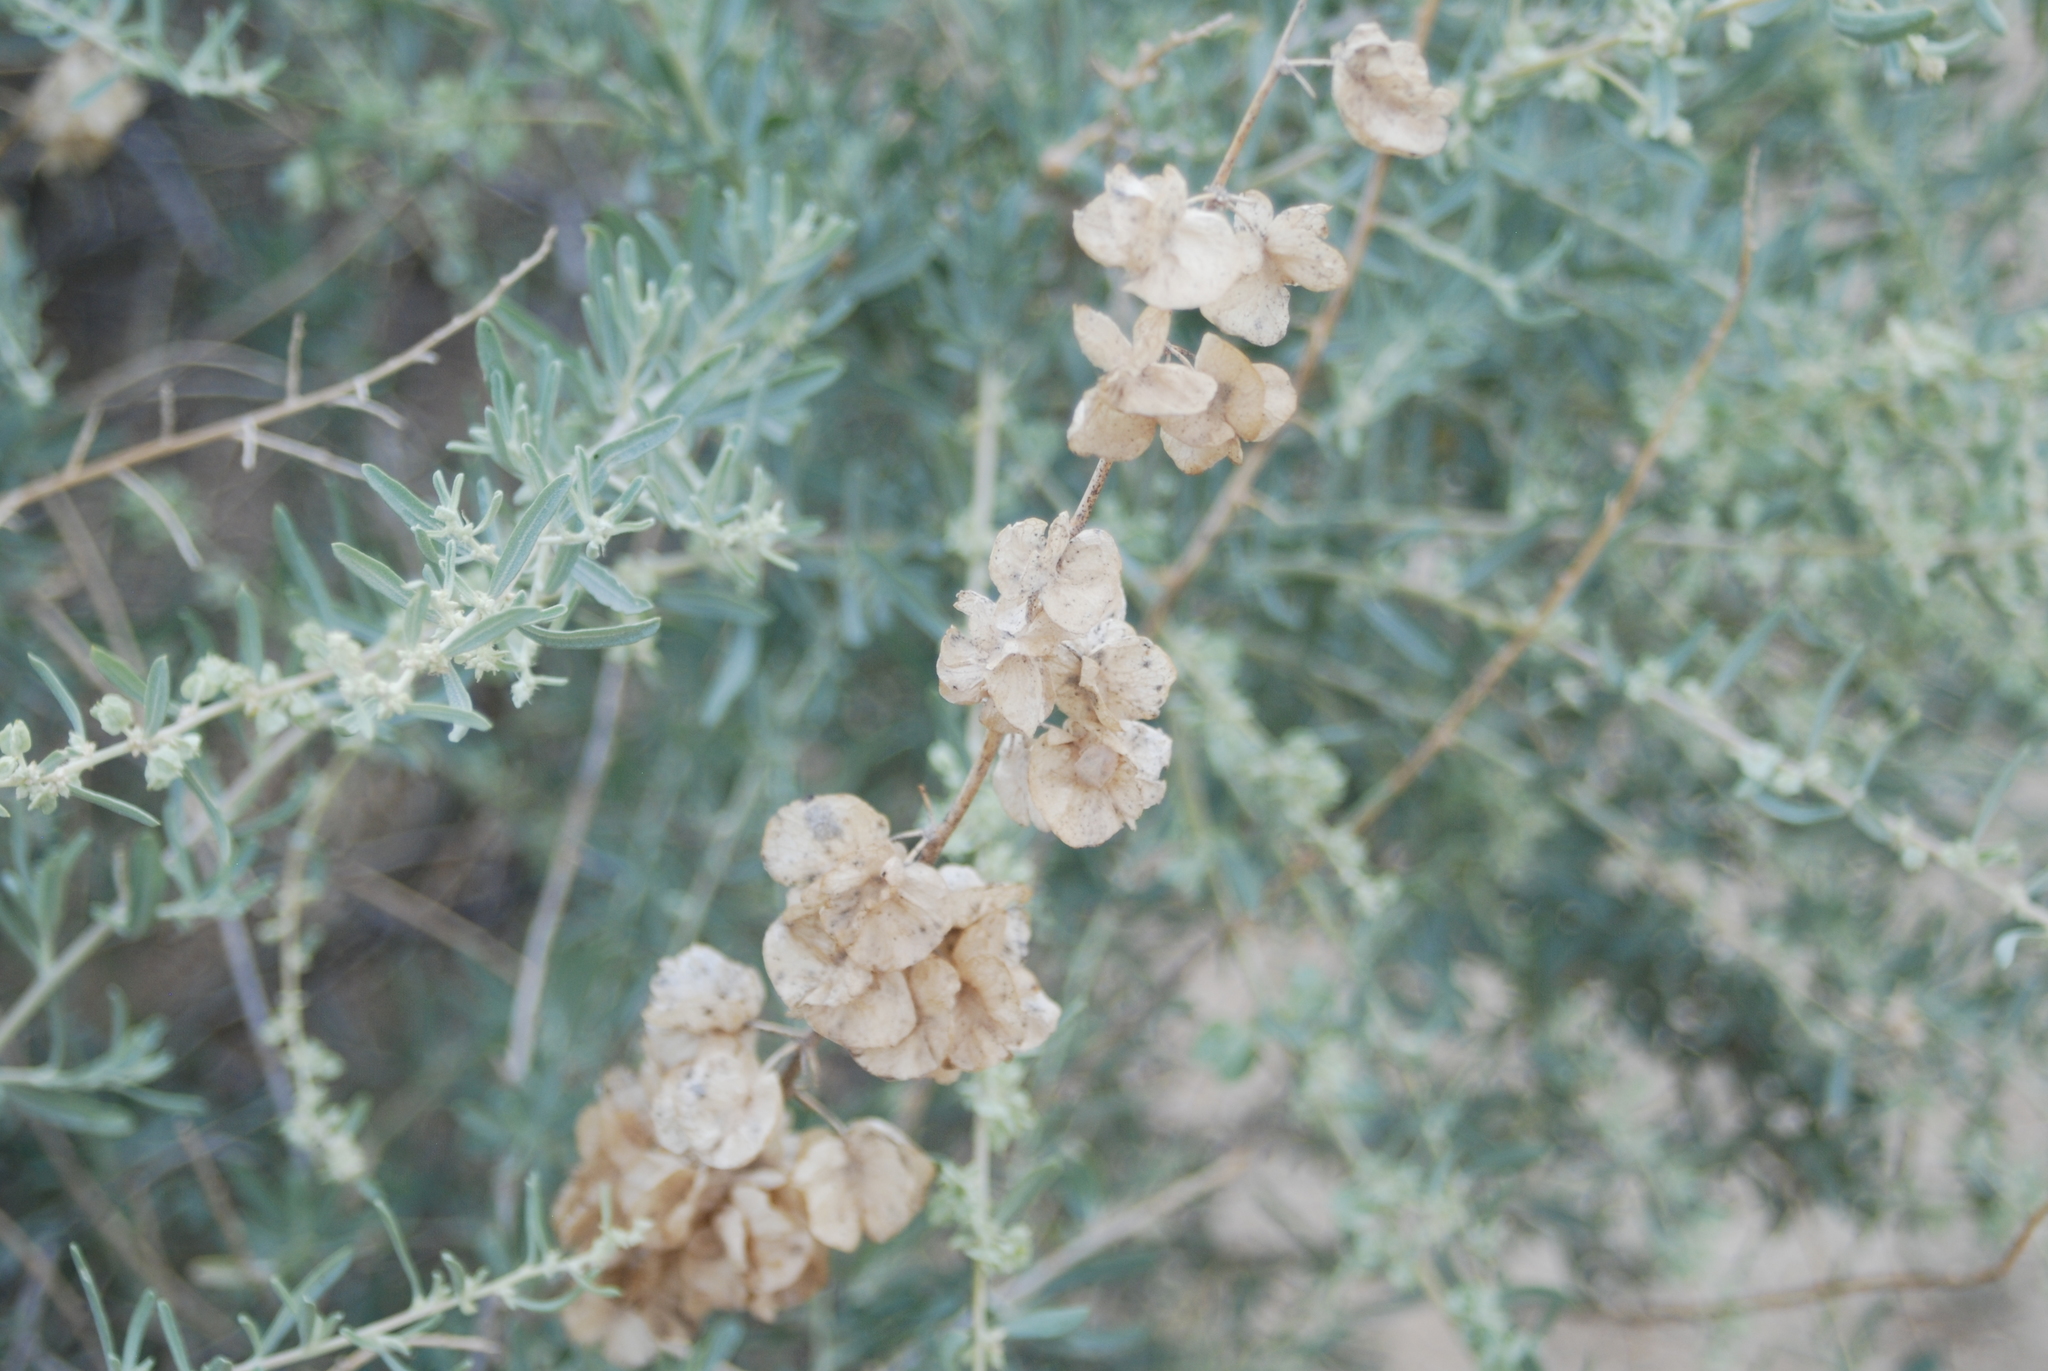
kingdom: Plantae
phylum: Tracheophyta
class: Magnoliopsida
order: Caryophyllales
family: Amaranthaceae
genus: Atriplex
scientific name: Atriplex canescens
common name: Four-wing saltbush
